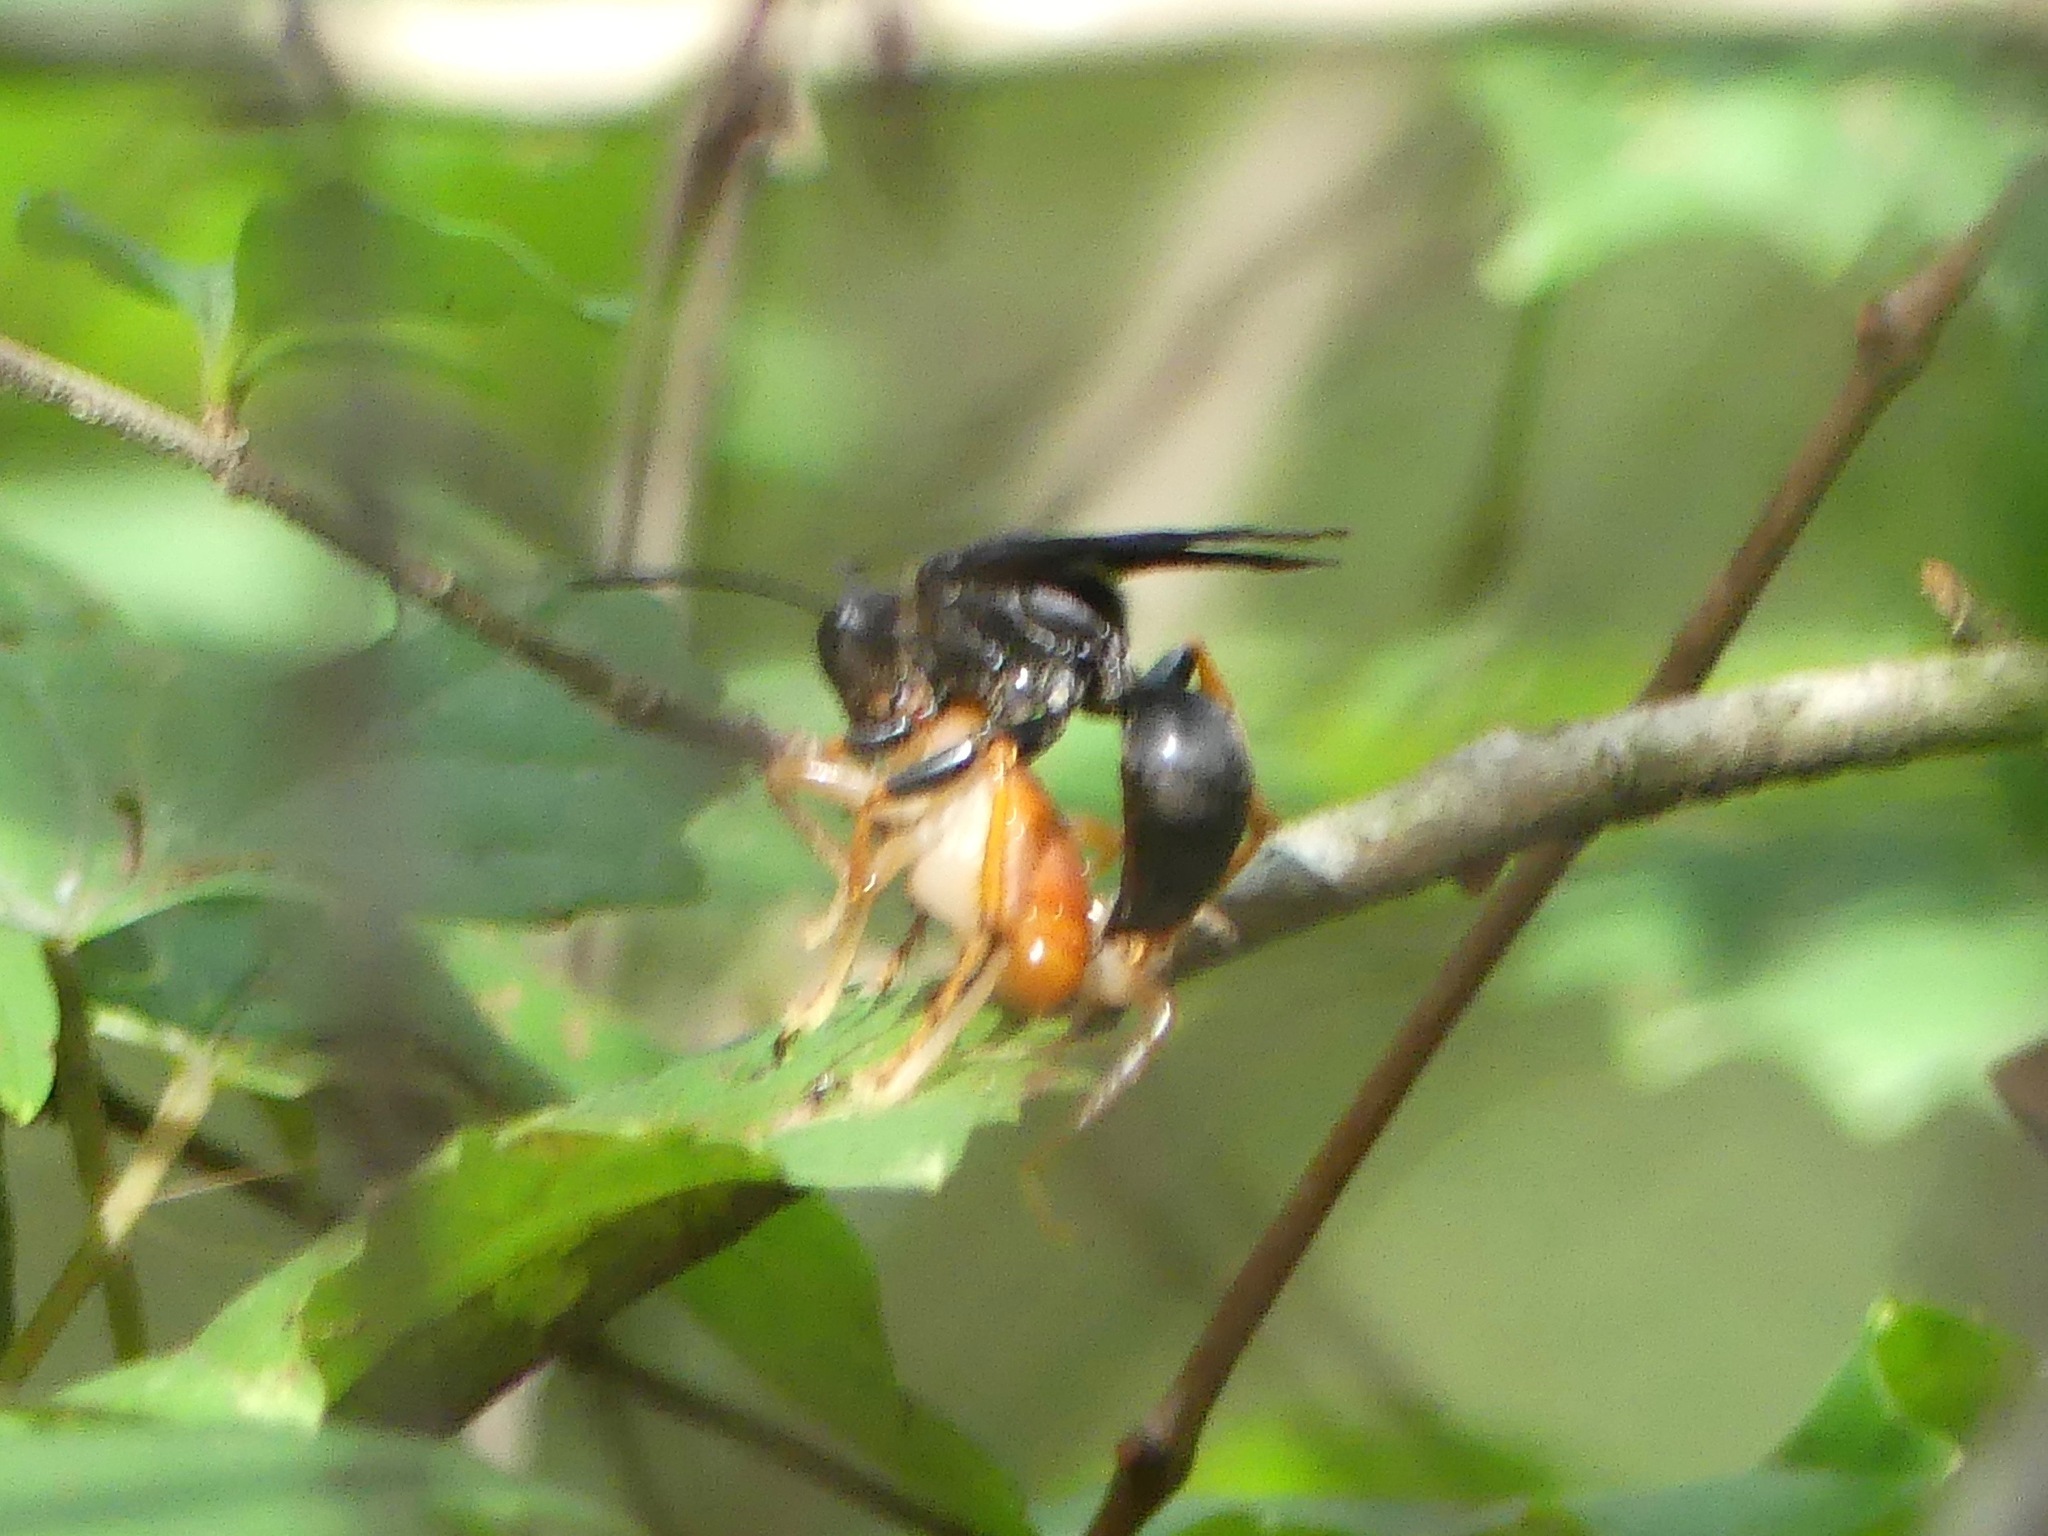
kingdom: Animalia
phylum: Arthropoda
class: Insecta
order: Hymenoptera
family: Sphecidae
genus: Sphex
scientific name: Sphex nudus
